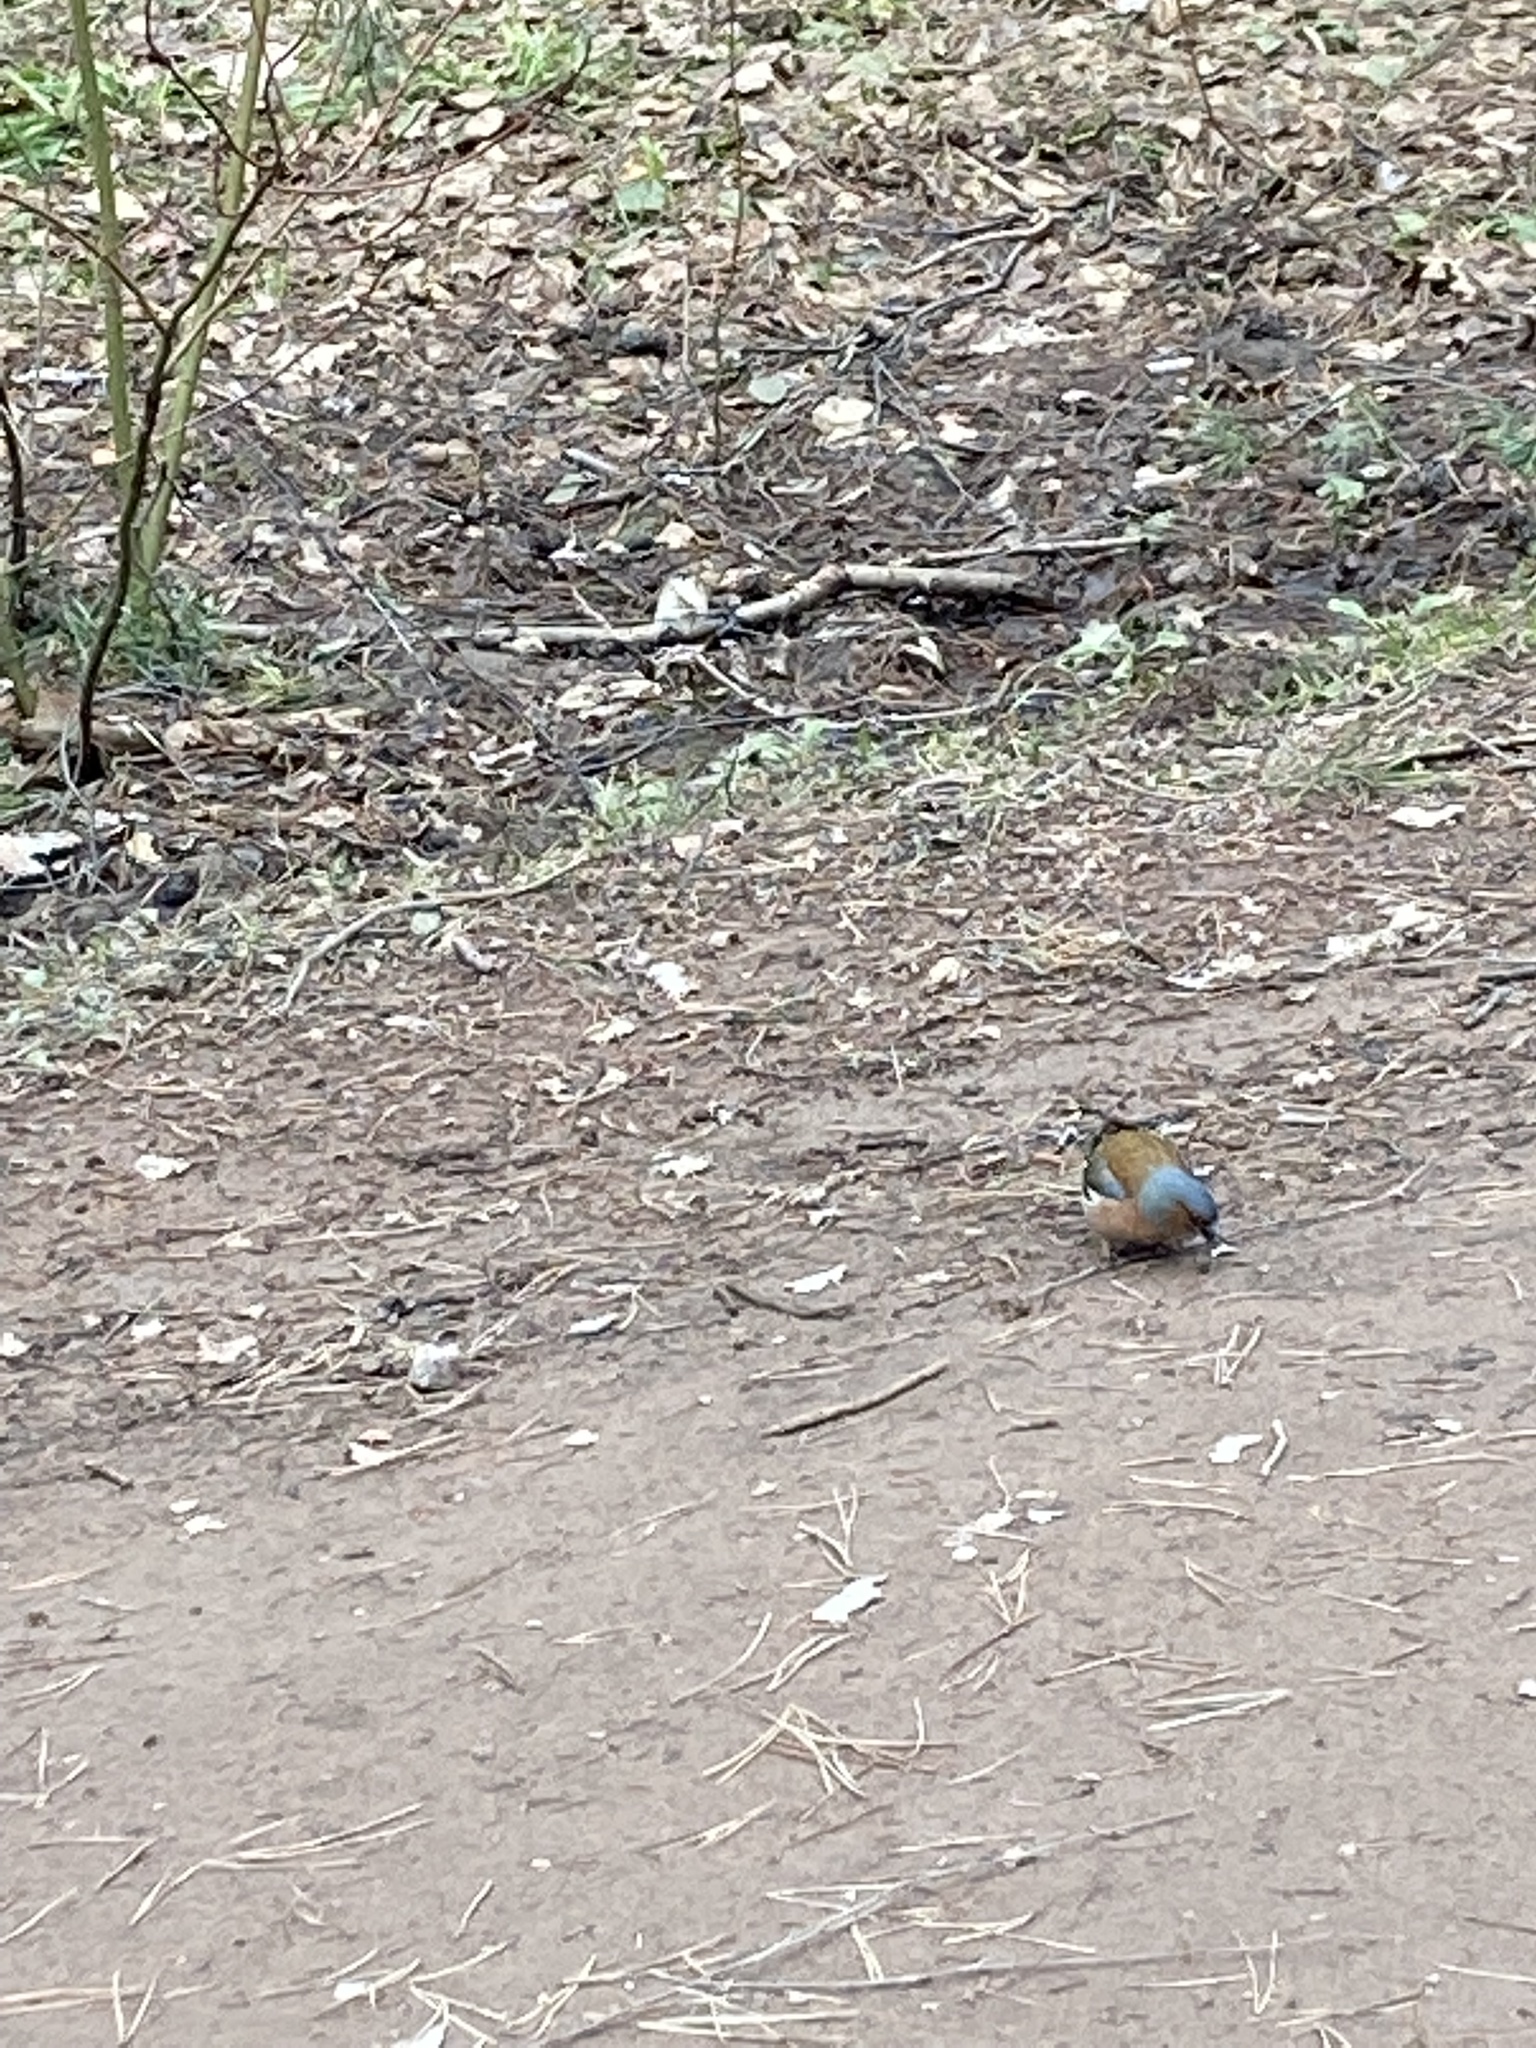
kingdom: Animalia
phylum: Chordata
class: Aves
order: Passeriformes
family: Fringillidae
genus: Fringilla
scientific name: Fringilla coelebs
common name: Common chaffinch
